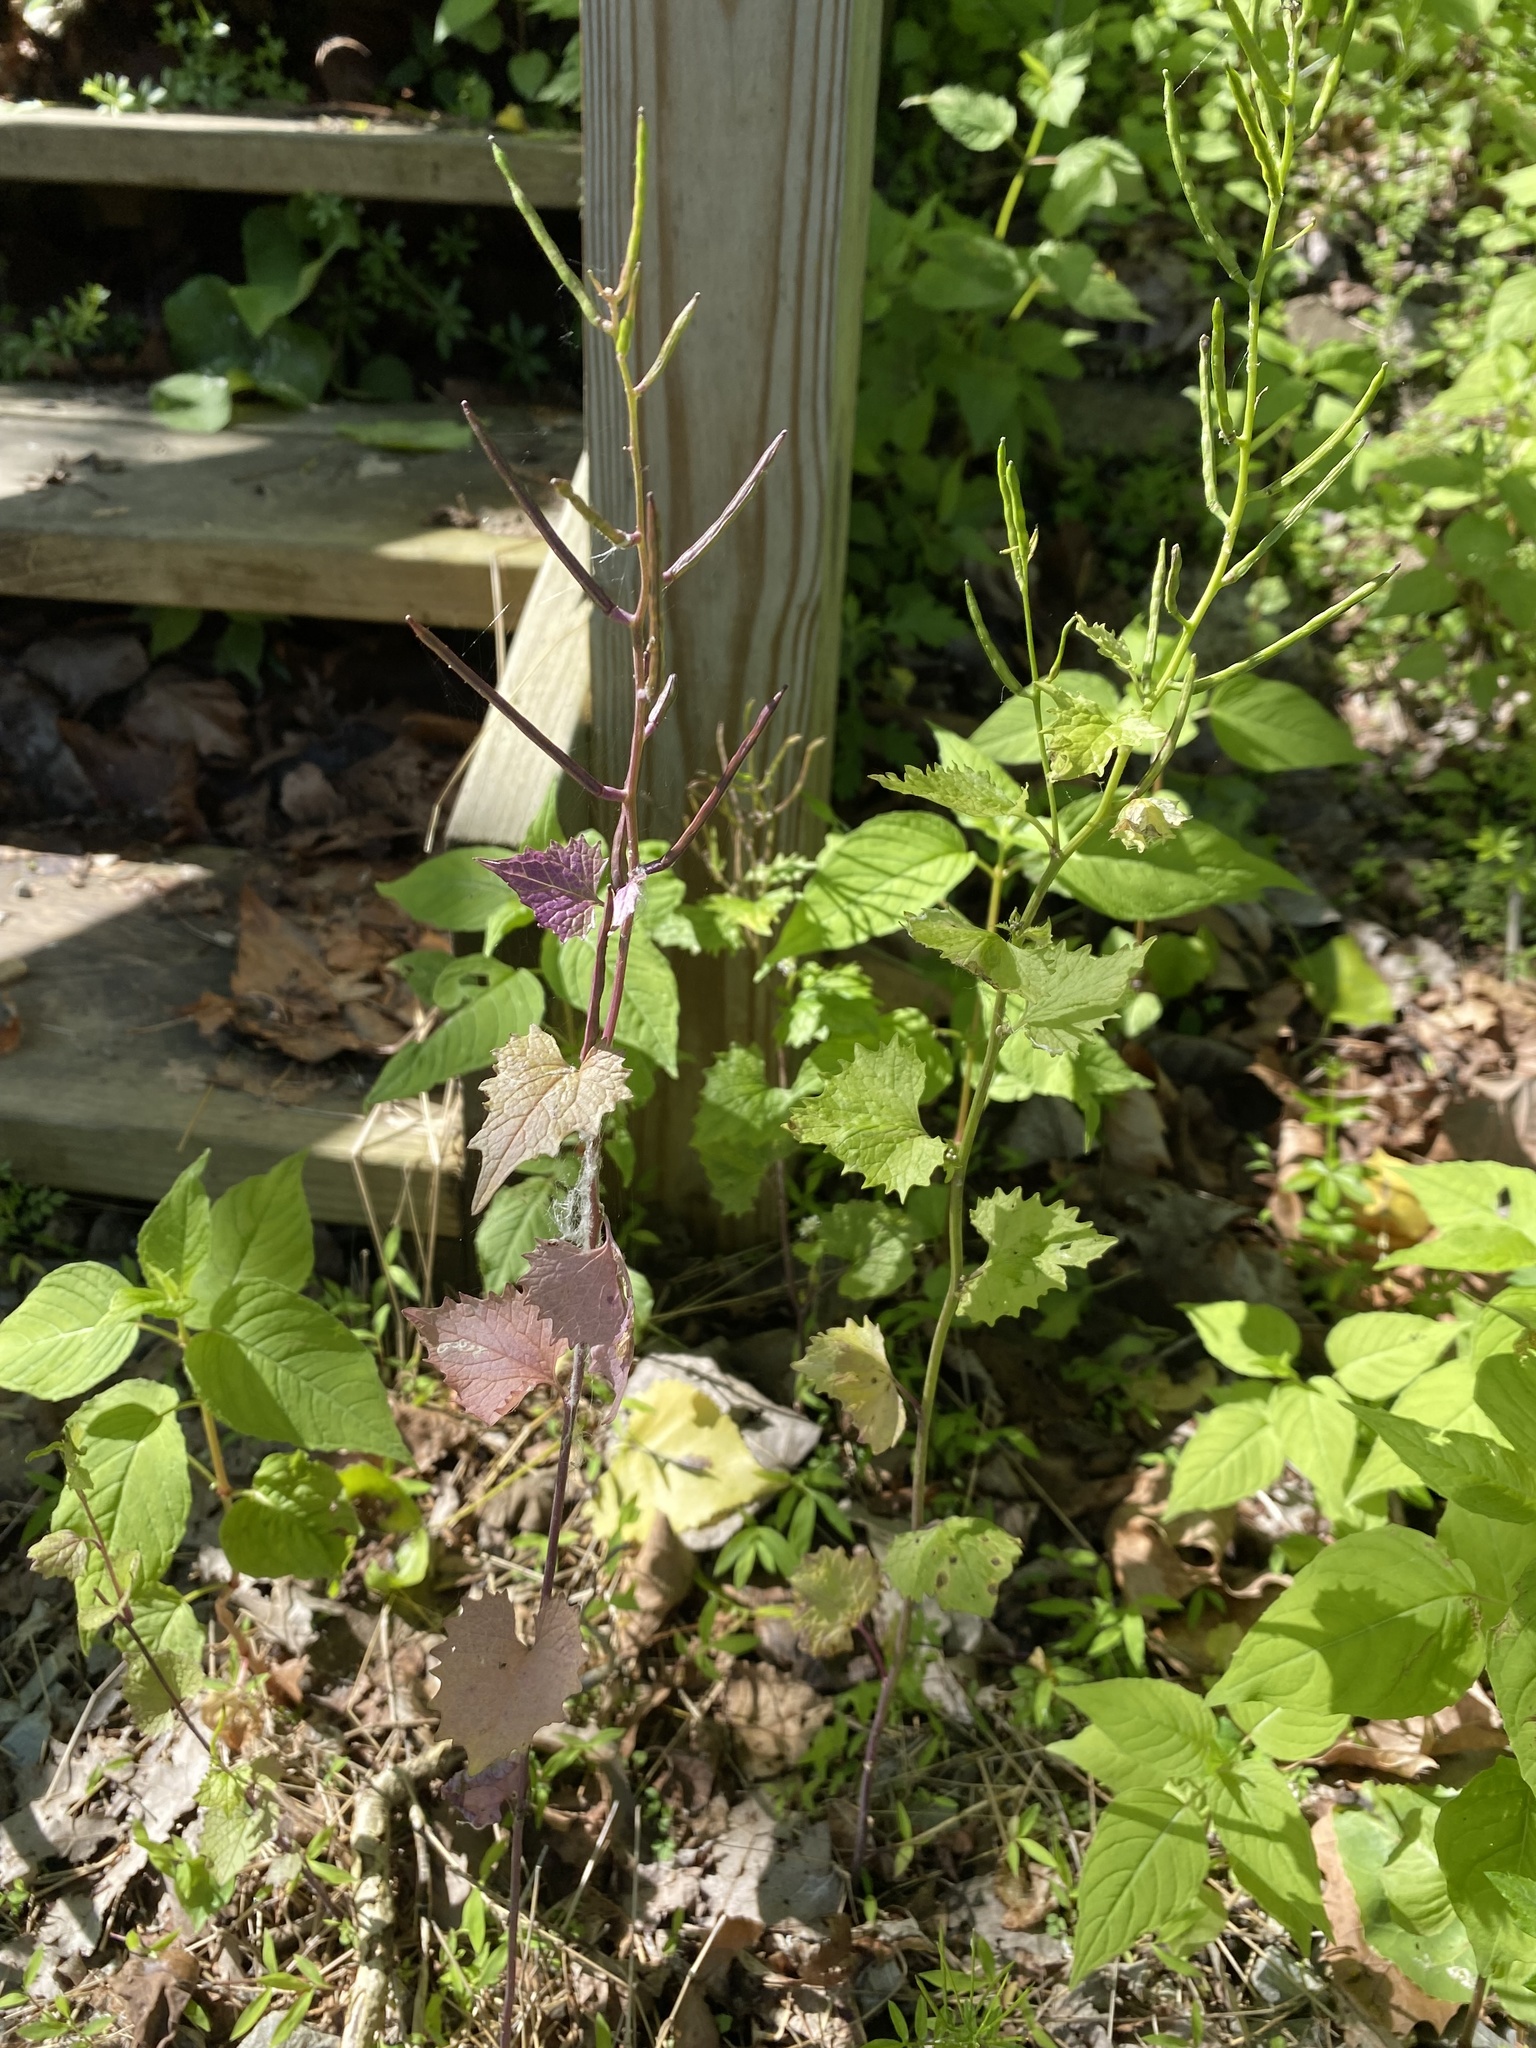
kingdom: Plantae
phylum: Tracheophyta
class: Magnoliopsida
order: Brassicales
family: Brassicaceae
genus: Alliaria
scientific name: Alliaria petiolata
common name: Garlic mustard
